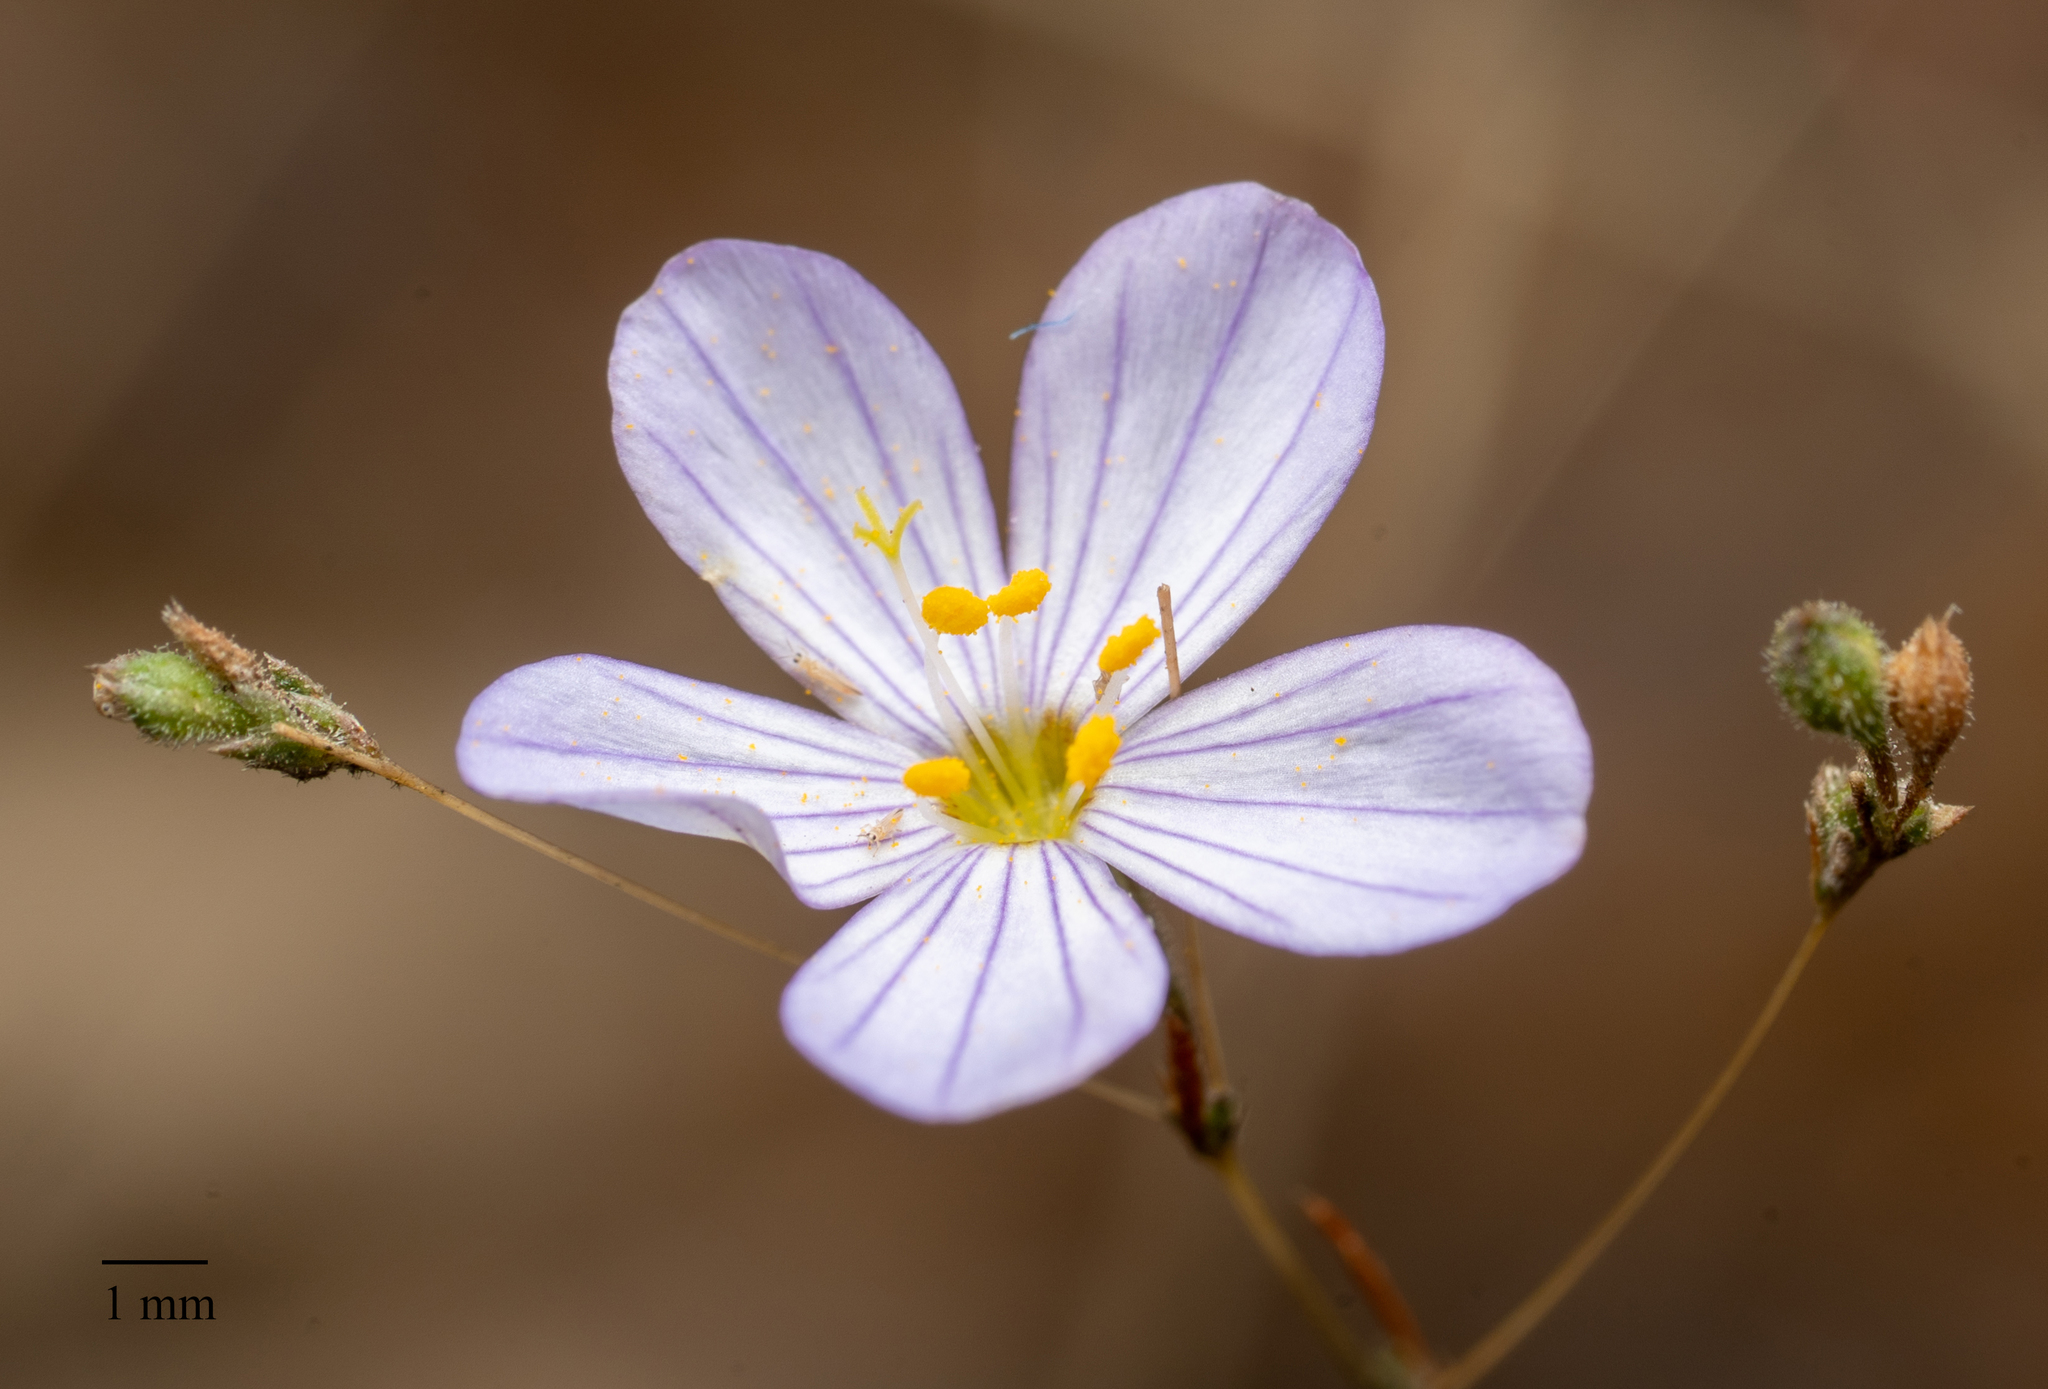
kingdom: Plantae
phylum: Tracheophyta
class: Magnoliopsida
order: Ericales
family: Polemoniaceae
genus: Leptosiphon
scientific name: Leptosiphon liniflorus
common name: Narrowflower flaxflower
